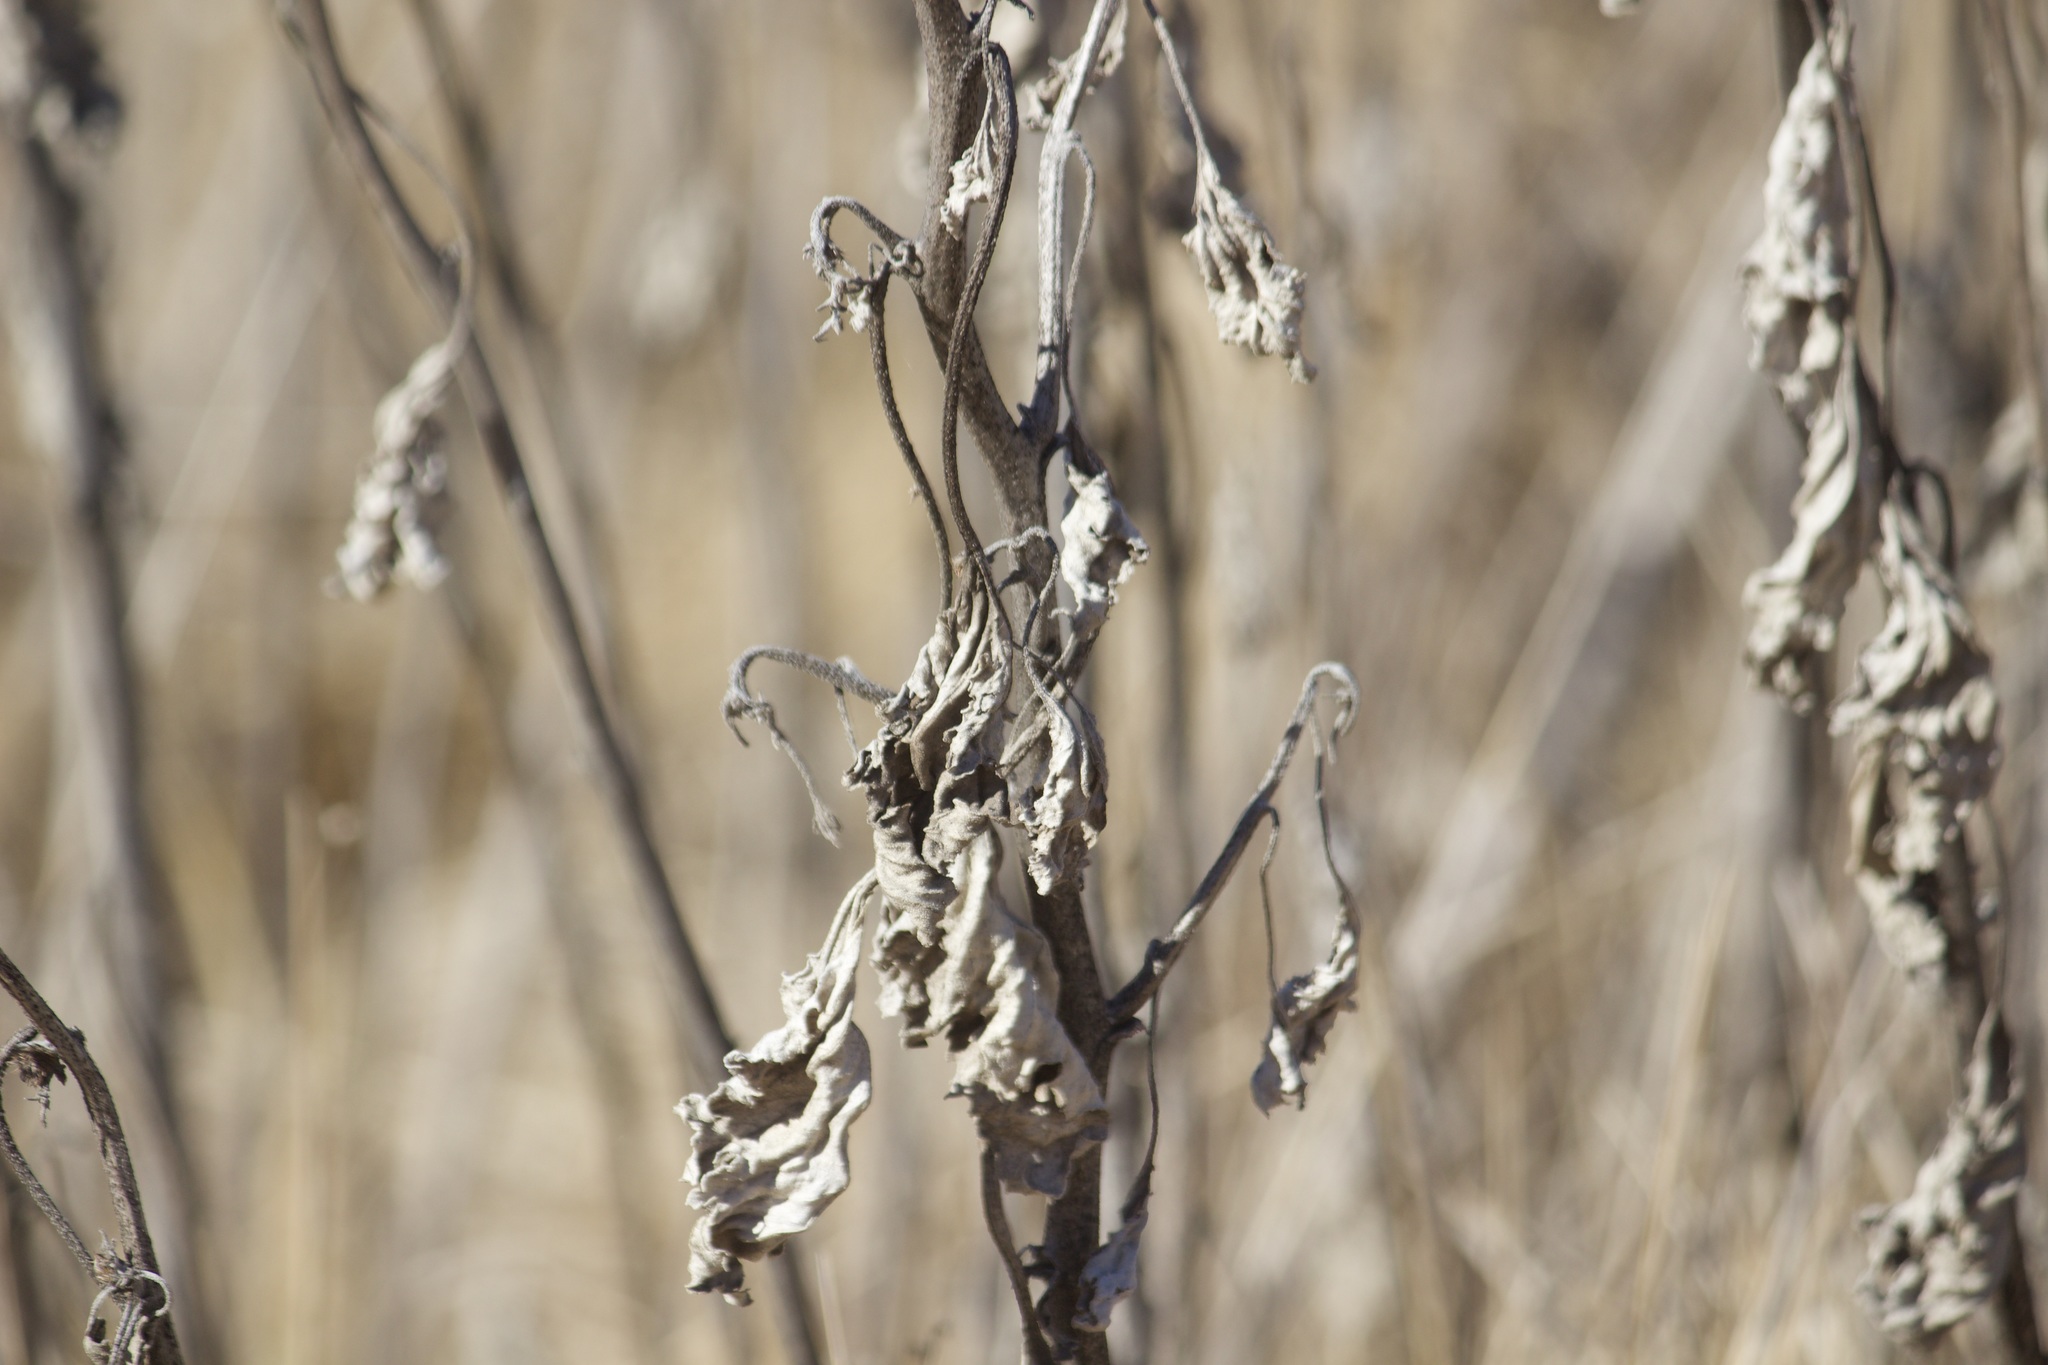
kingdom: Plantae
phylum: Tracheophyta
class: Magnoliopsida
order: Asterales
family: Asteraceae
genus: Xanthium
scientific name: Xanthium strumarium
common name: Rough cocklebur
